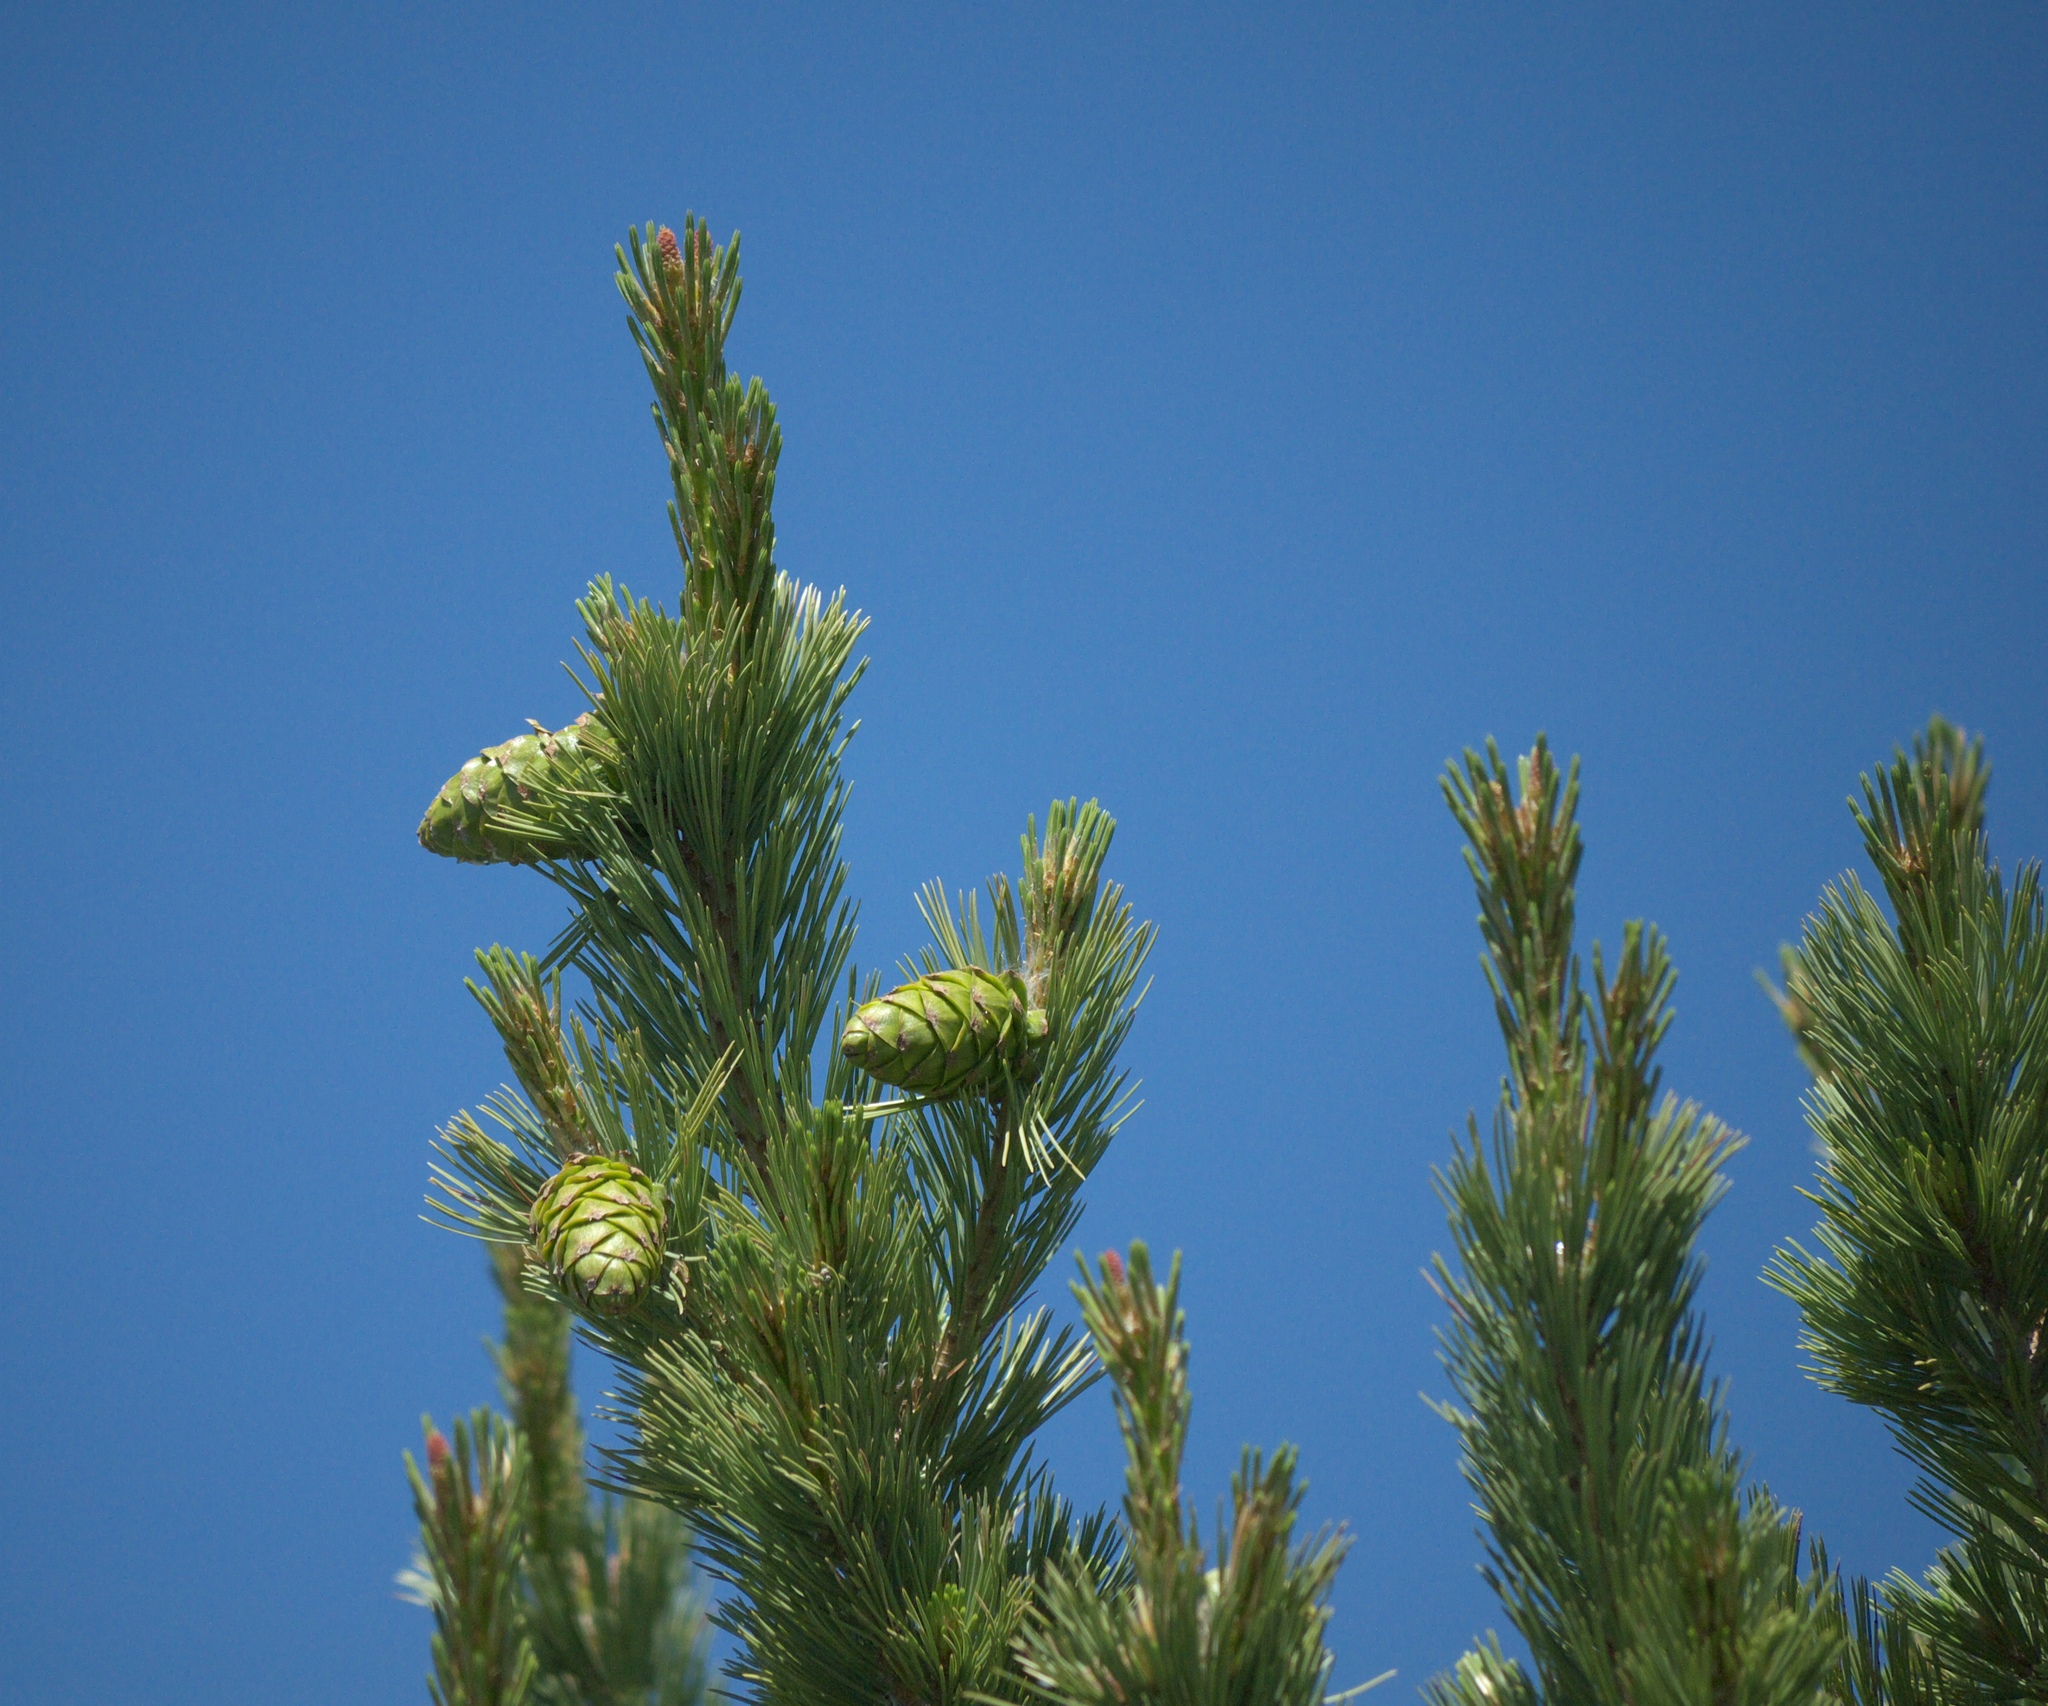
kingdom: Plantae
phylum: Tracheophyta
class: Pinopsida
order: Pinales
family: Pinaceae
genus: Pinus
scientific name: Pinus flexilis
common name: Limber pine
